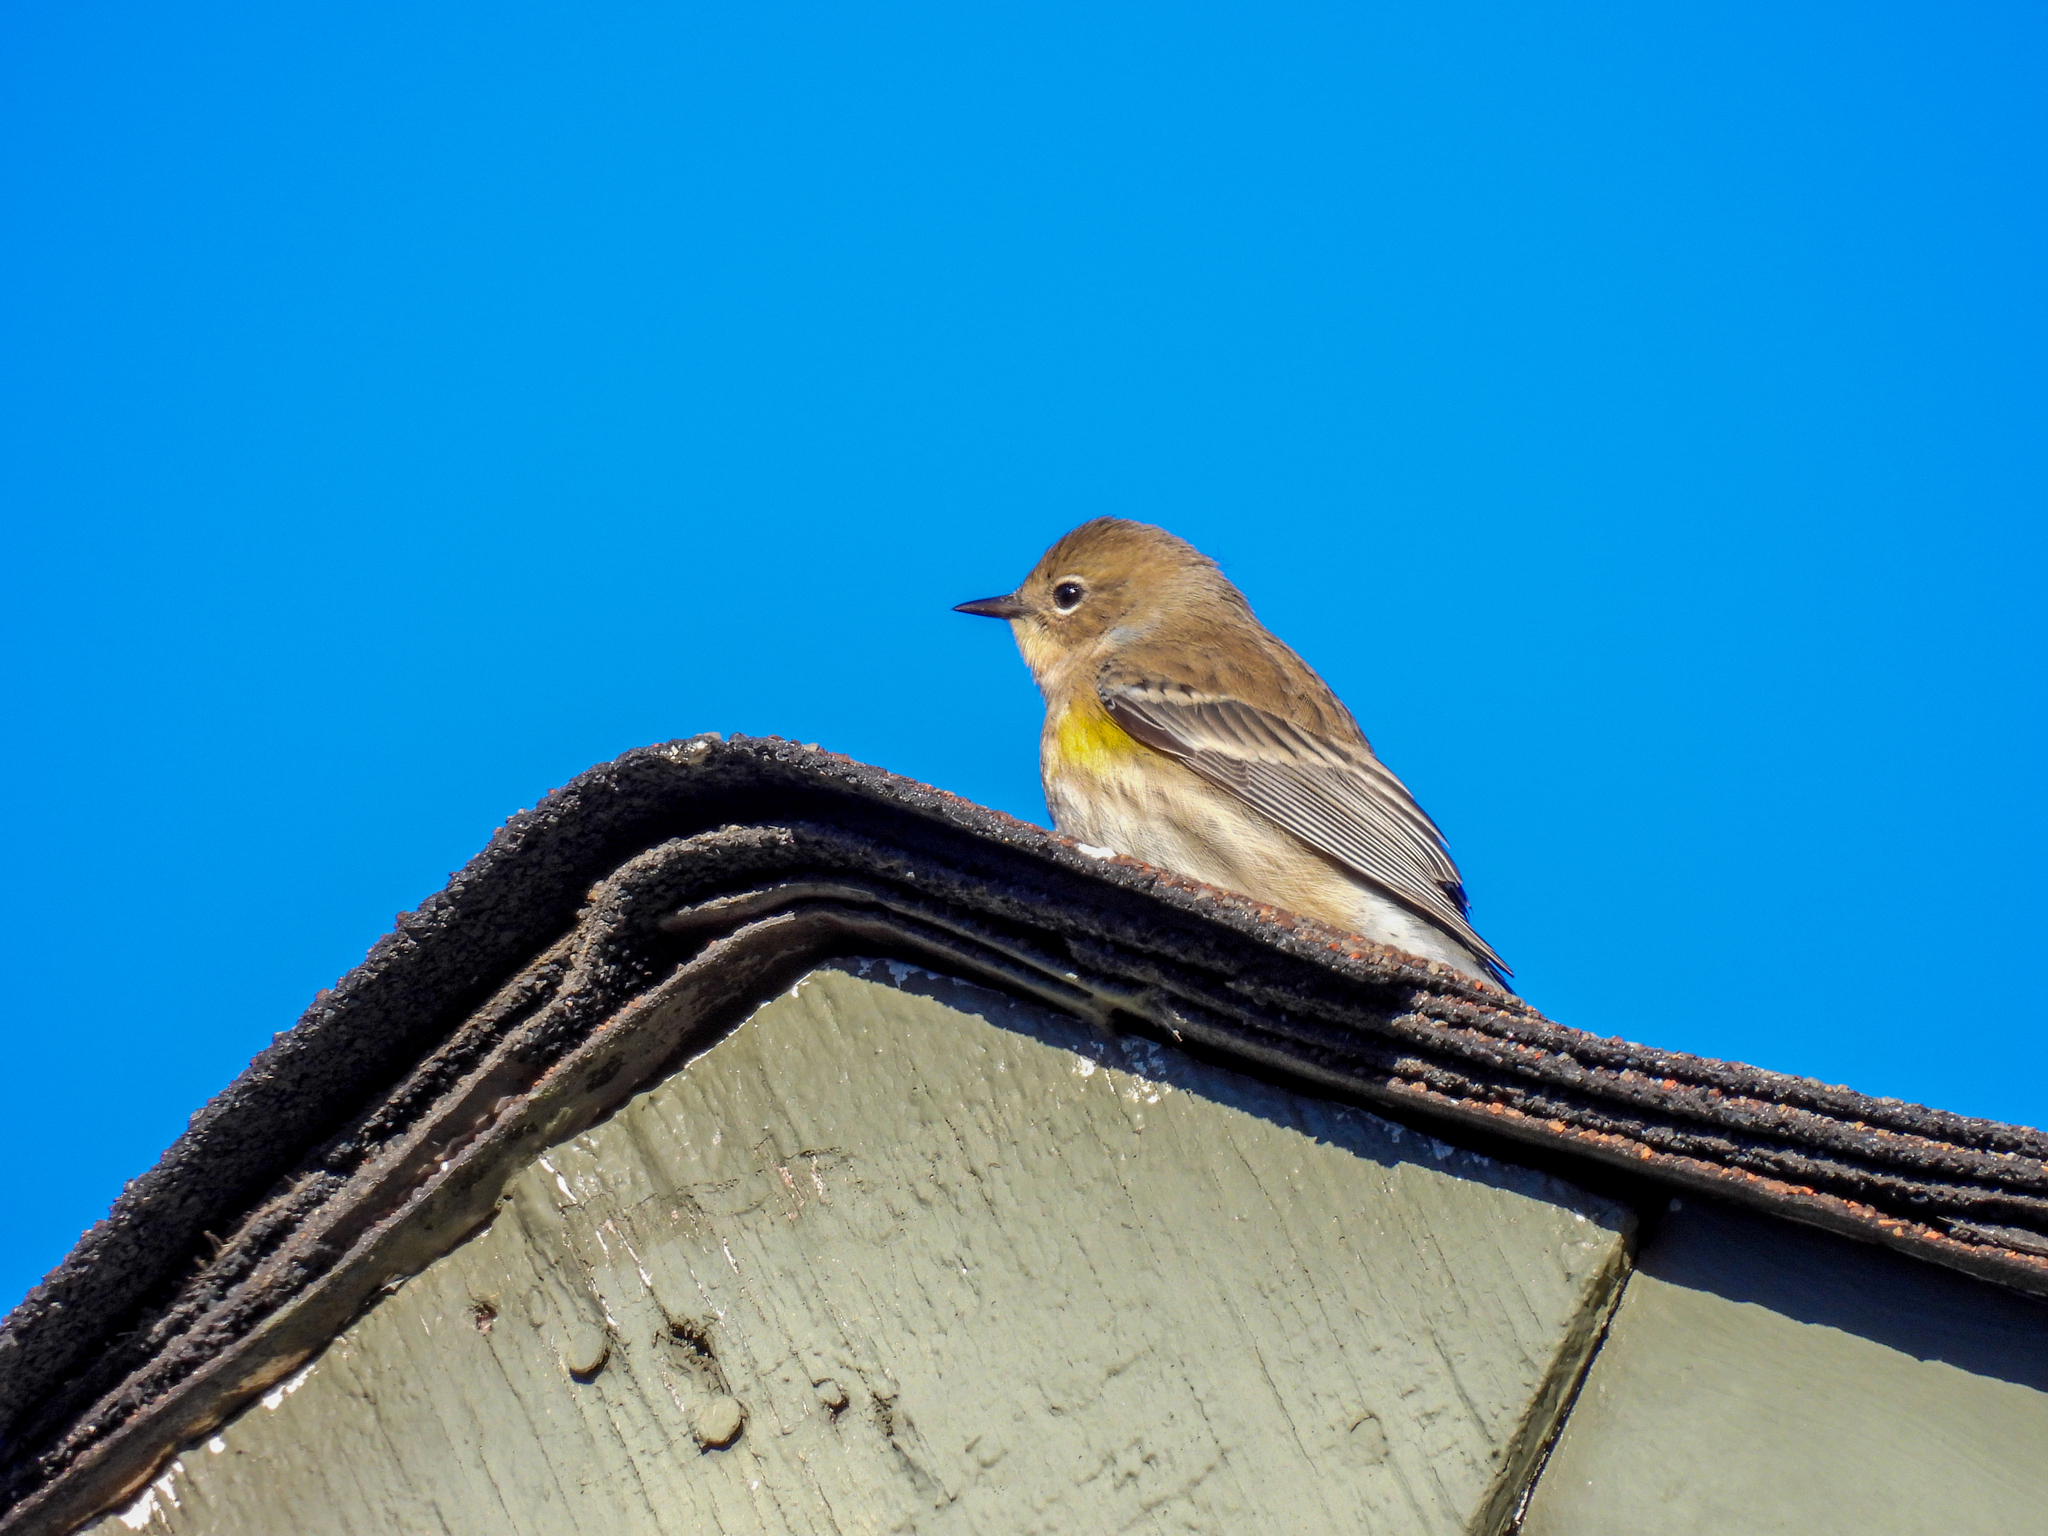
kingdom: Animalia
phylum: Chordata
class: Aves
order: Passeriformes
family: Parulidae
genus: Setophaga
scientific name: Setophaga coronata
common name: Myrtle warbler
